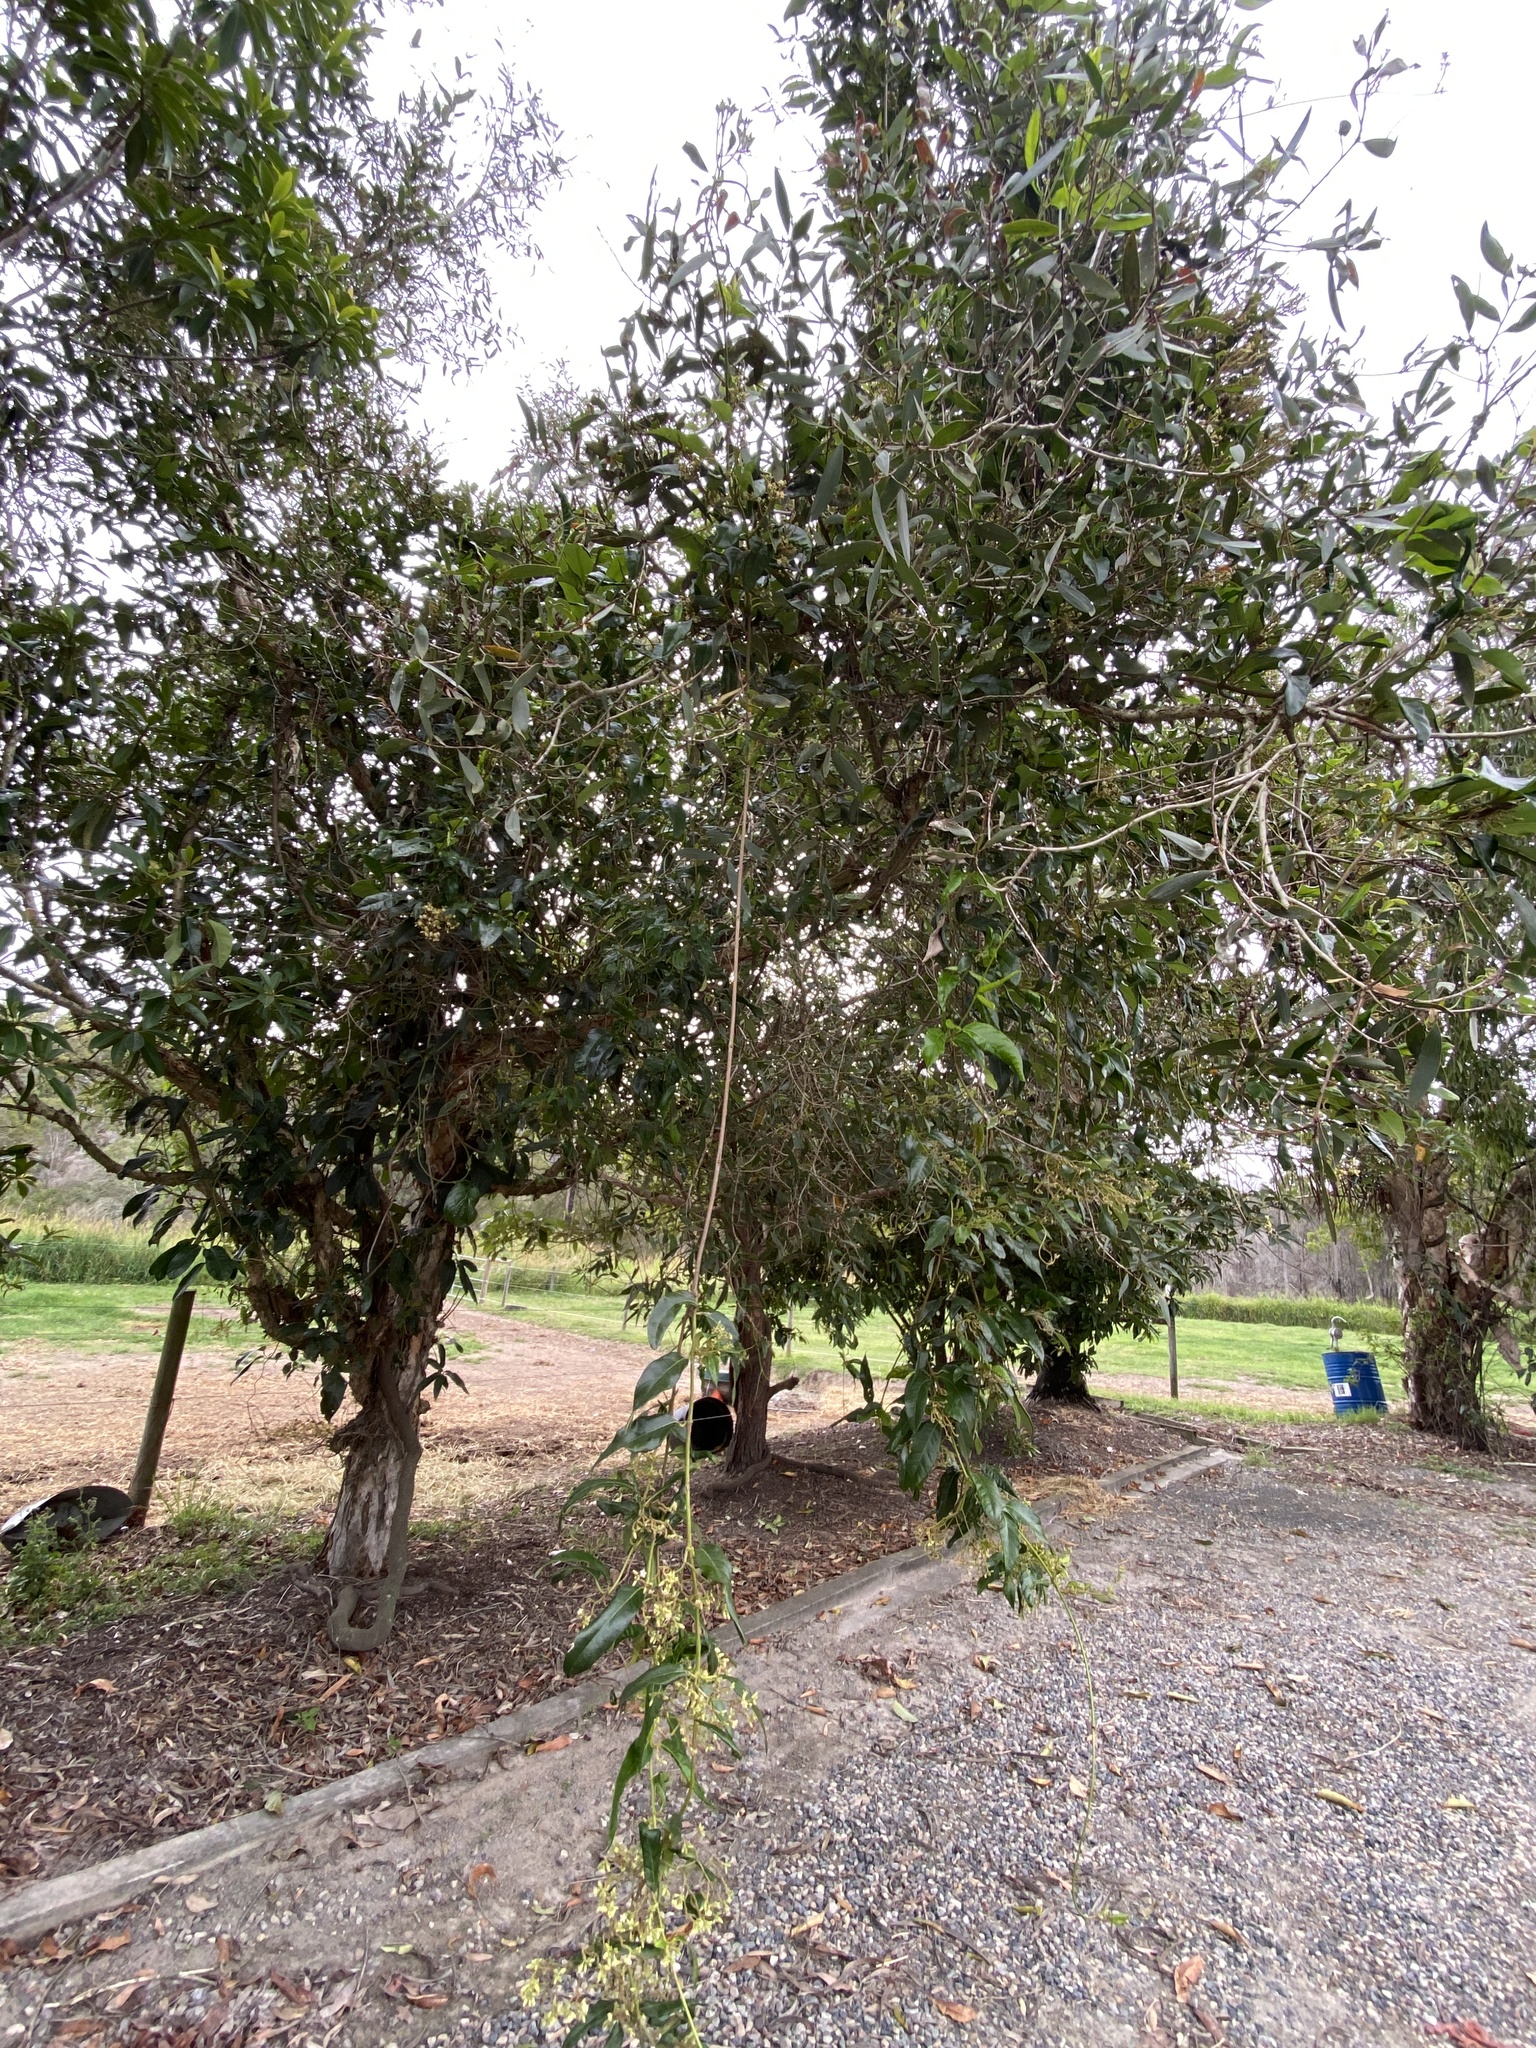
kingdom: Plantae
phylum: Tracheophyta
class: Magnoliopsida
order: Gentianales
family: Apocynaceae
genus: Parsonsia
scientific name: Parsonsia straminea
